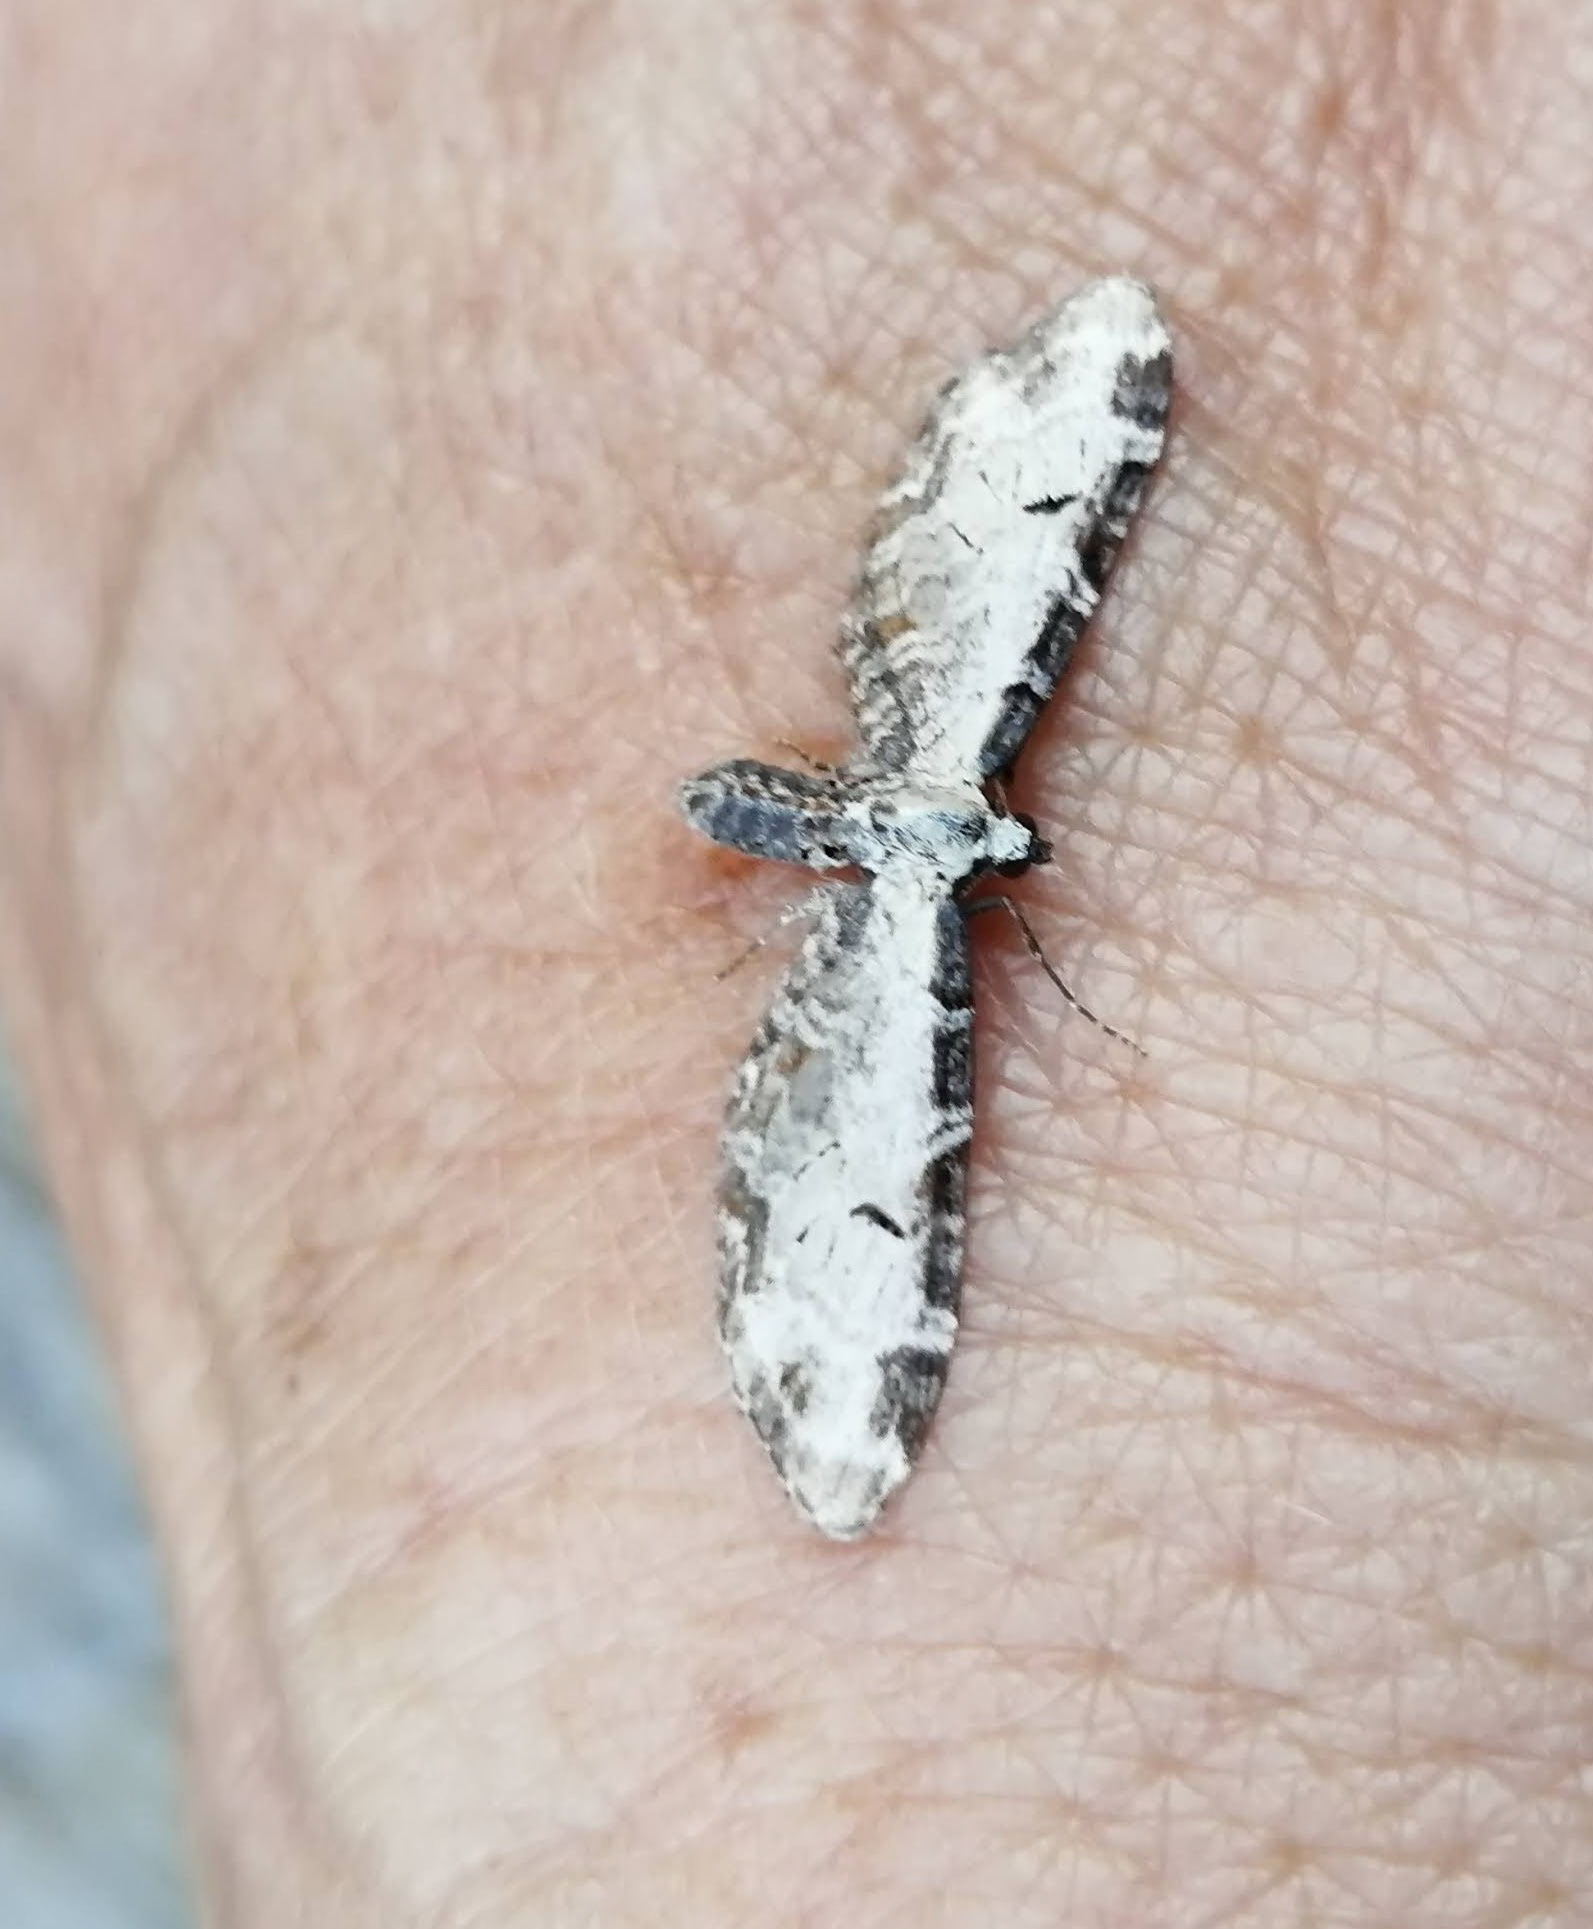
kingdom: Animalia
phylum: Arthropoda
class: Insecta
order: Lepidoptera
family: Geometridae
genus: Eupithecia
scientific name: Eupithecia ravocostaliata
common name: Great varigated pug
